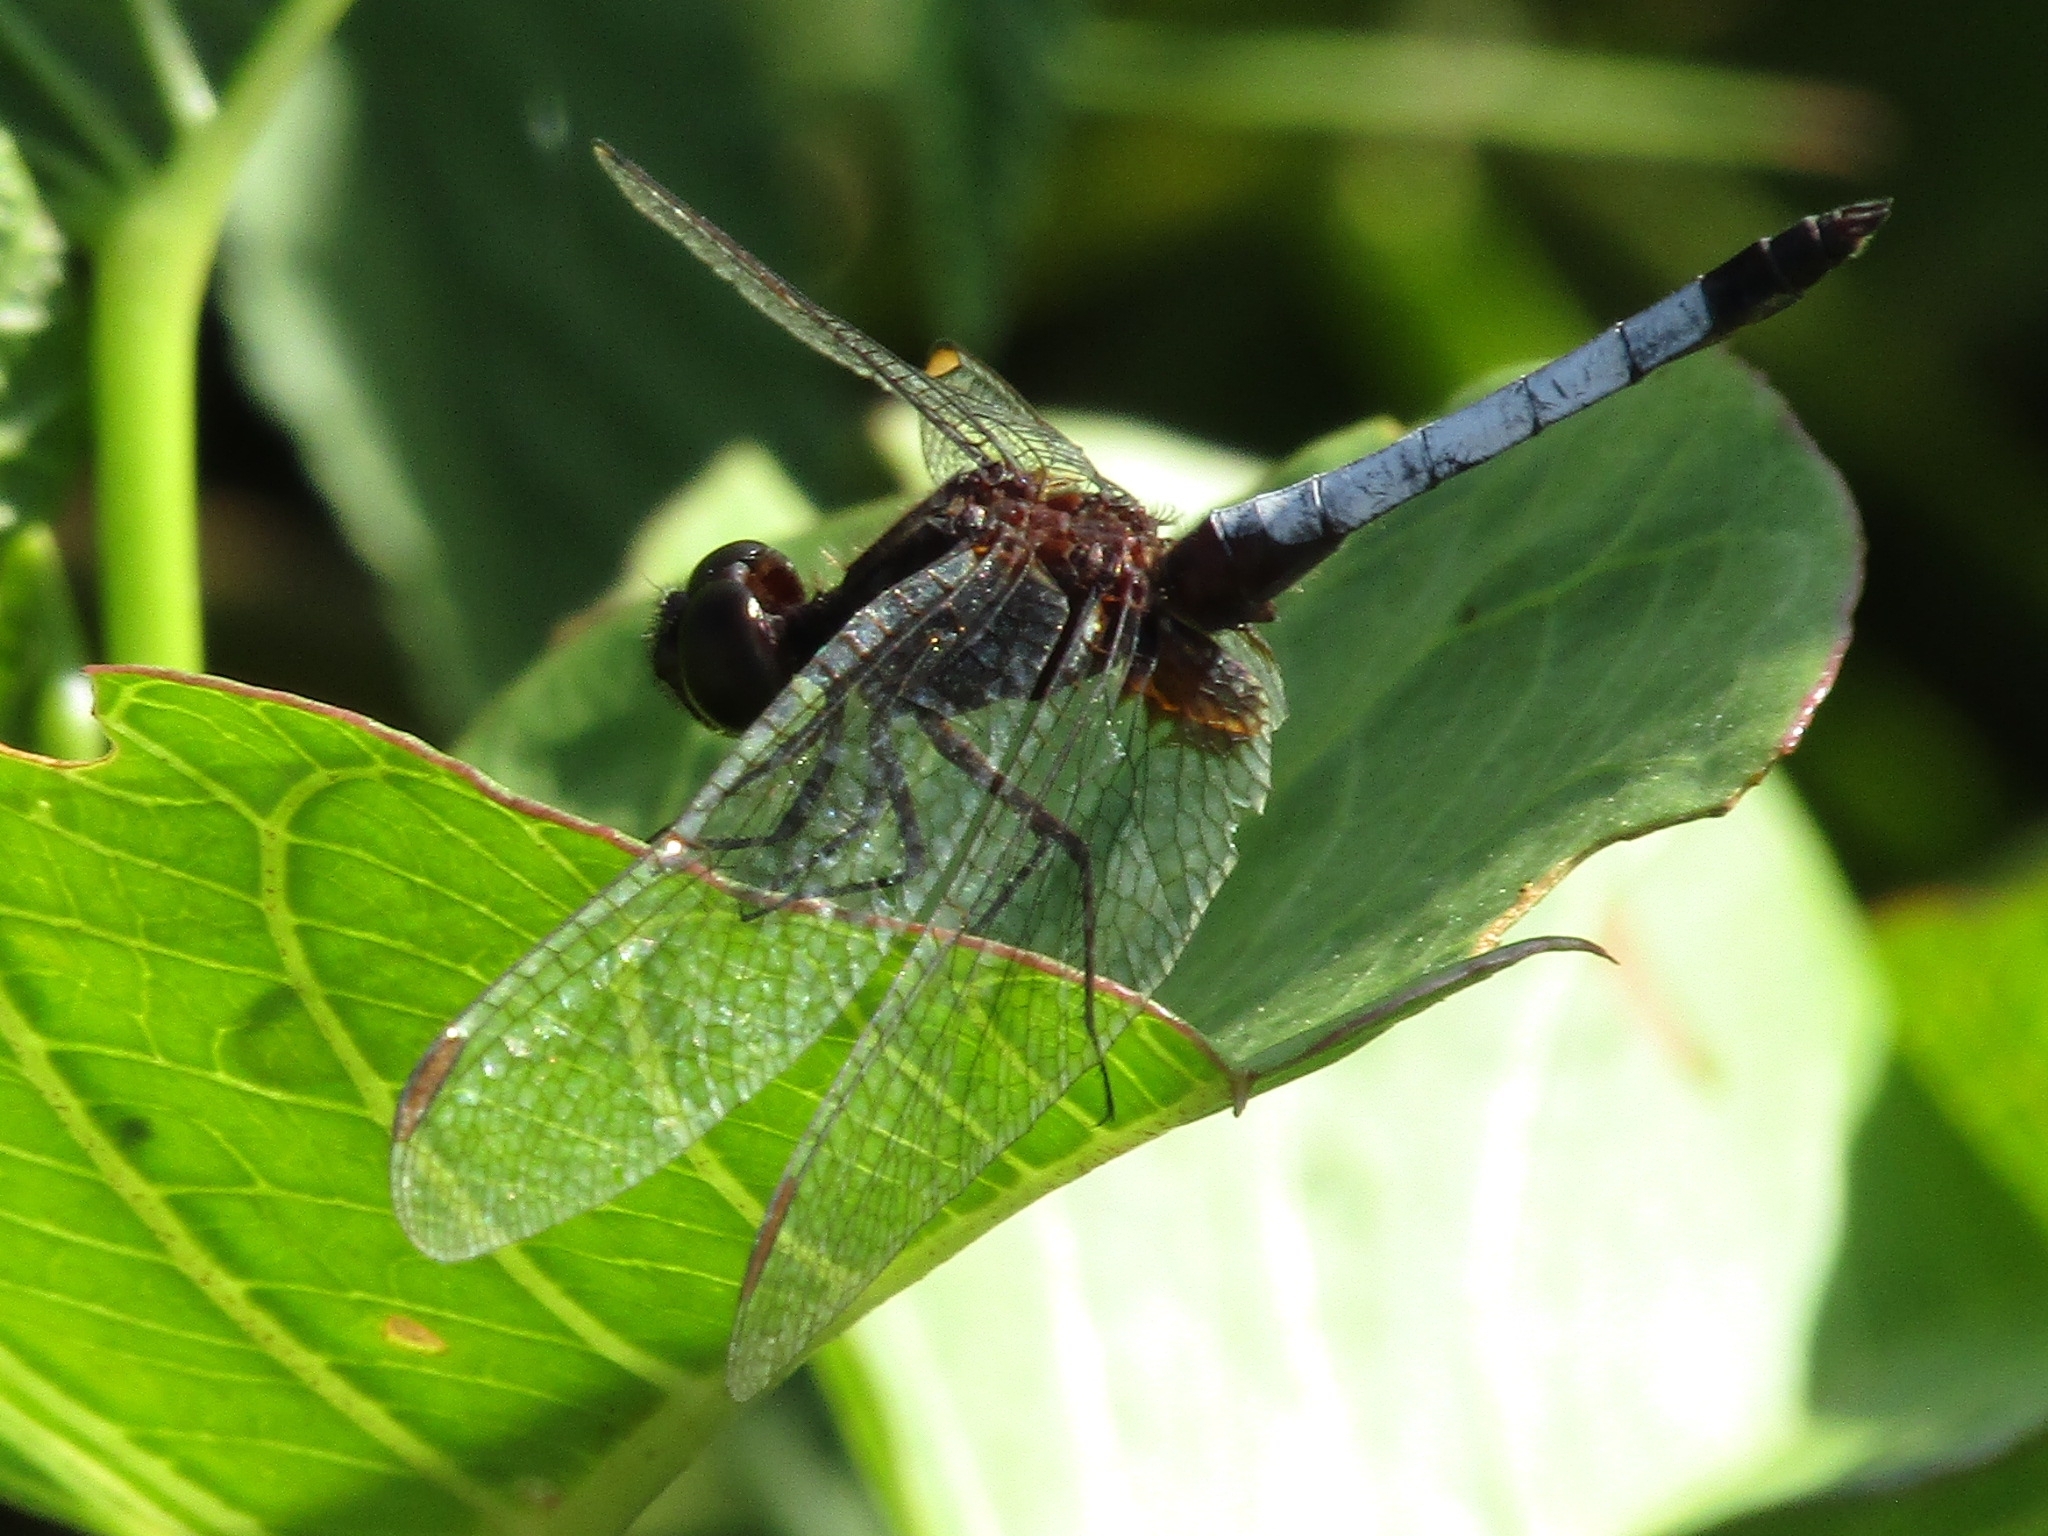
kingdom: Animalia
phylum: Arthropoda
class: Insecta
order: Odonata
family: Libellulidae
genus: Erythrodiplax
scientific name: Erythrodiplax fusca
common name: Red-faced dragonlet
